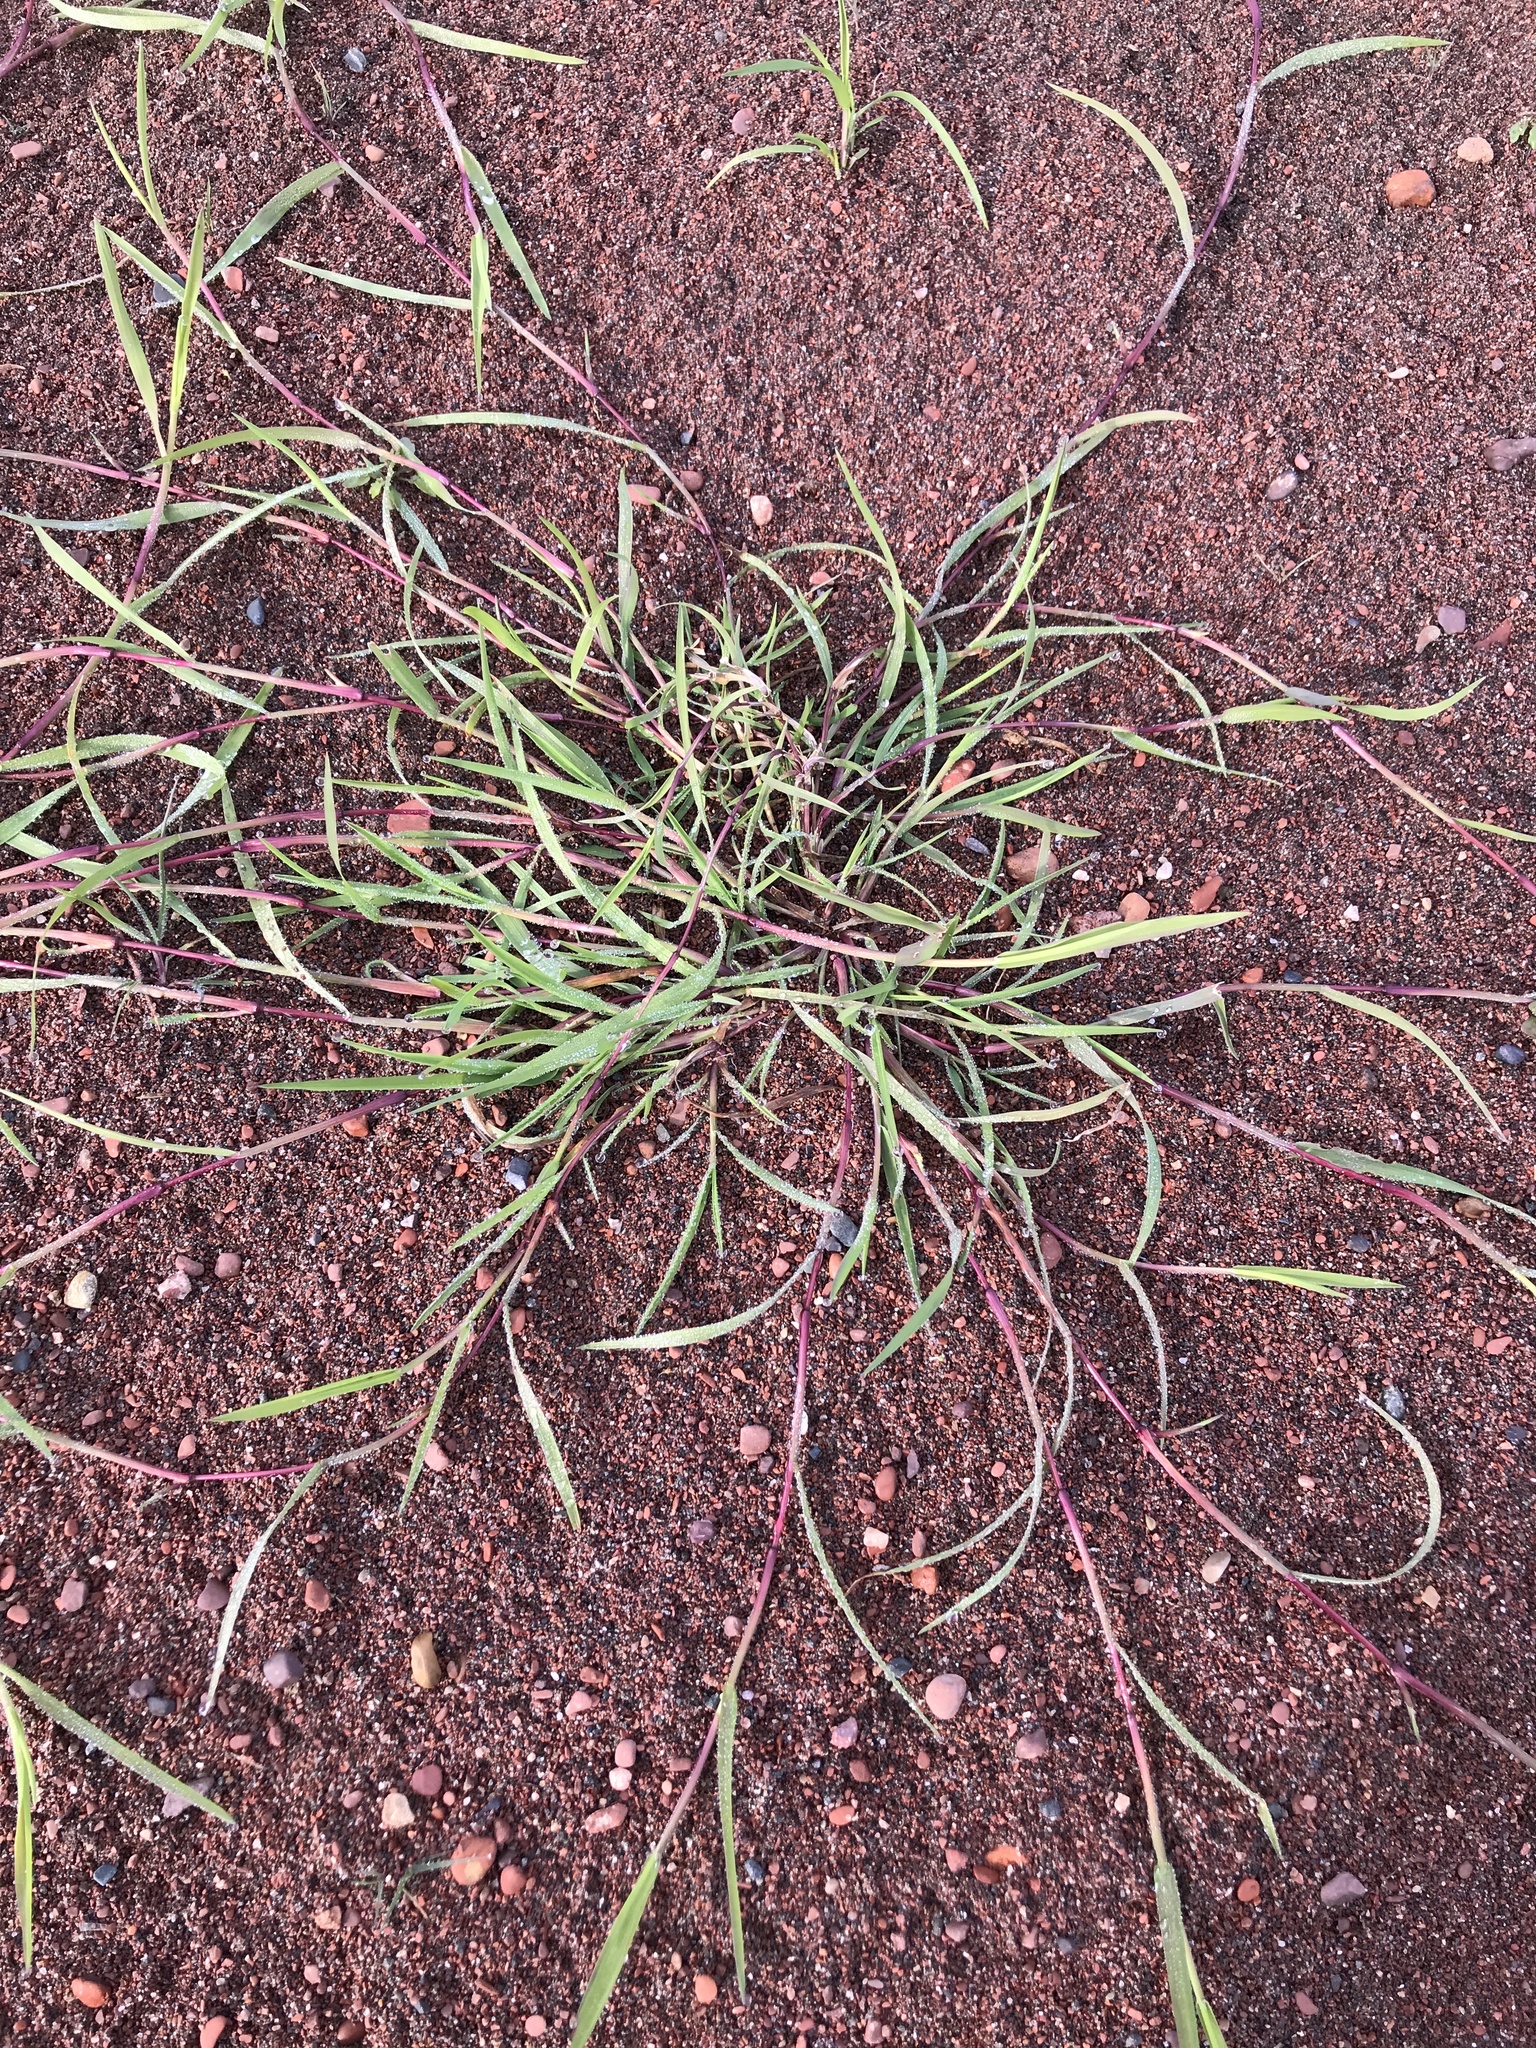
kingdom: Plantae
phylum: Tracheophyta
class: Liliopsida
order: Poales
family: Poaceae
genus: Agrostis
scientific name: Agrostis stolonifera
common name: Creeping bentgrass
